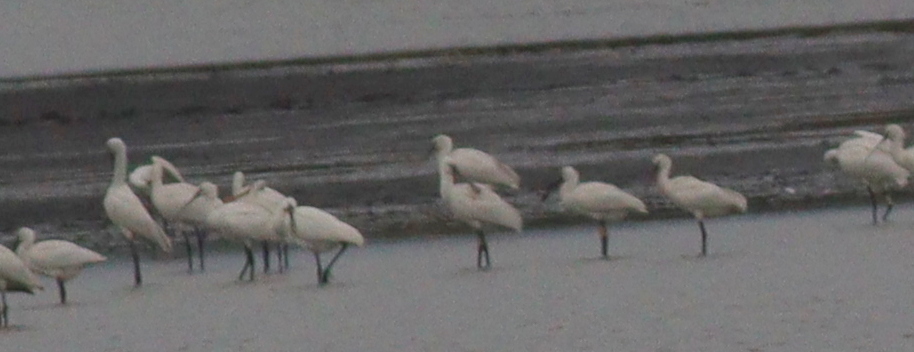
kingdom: Animalia
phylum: Chordata
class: Aves
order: Pelecaniformes
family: Threskiornithidae
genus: Platalea
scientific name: Platalea leucorodia
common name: Eurasian spoonbill
